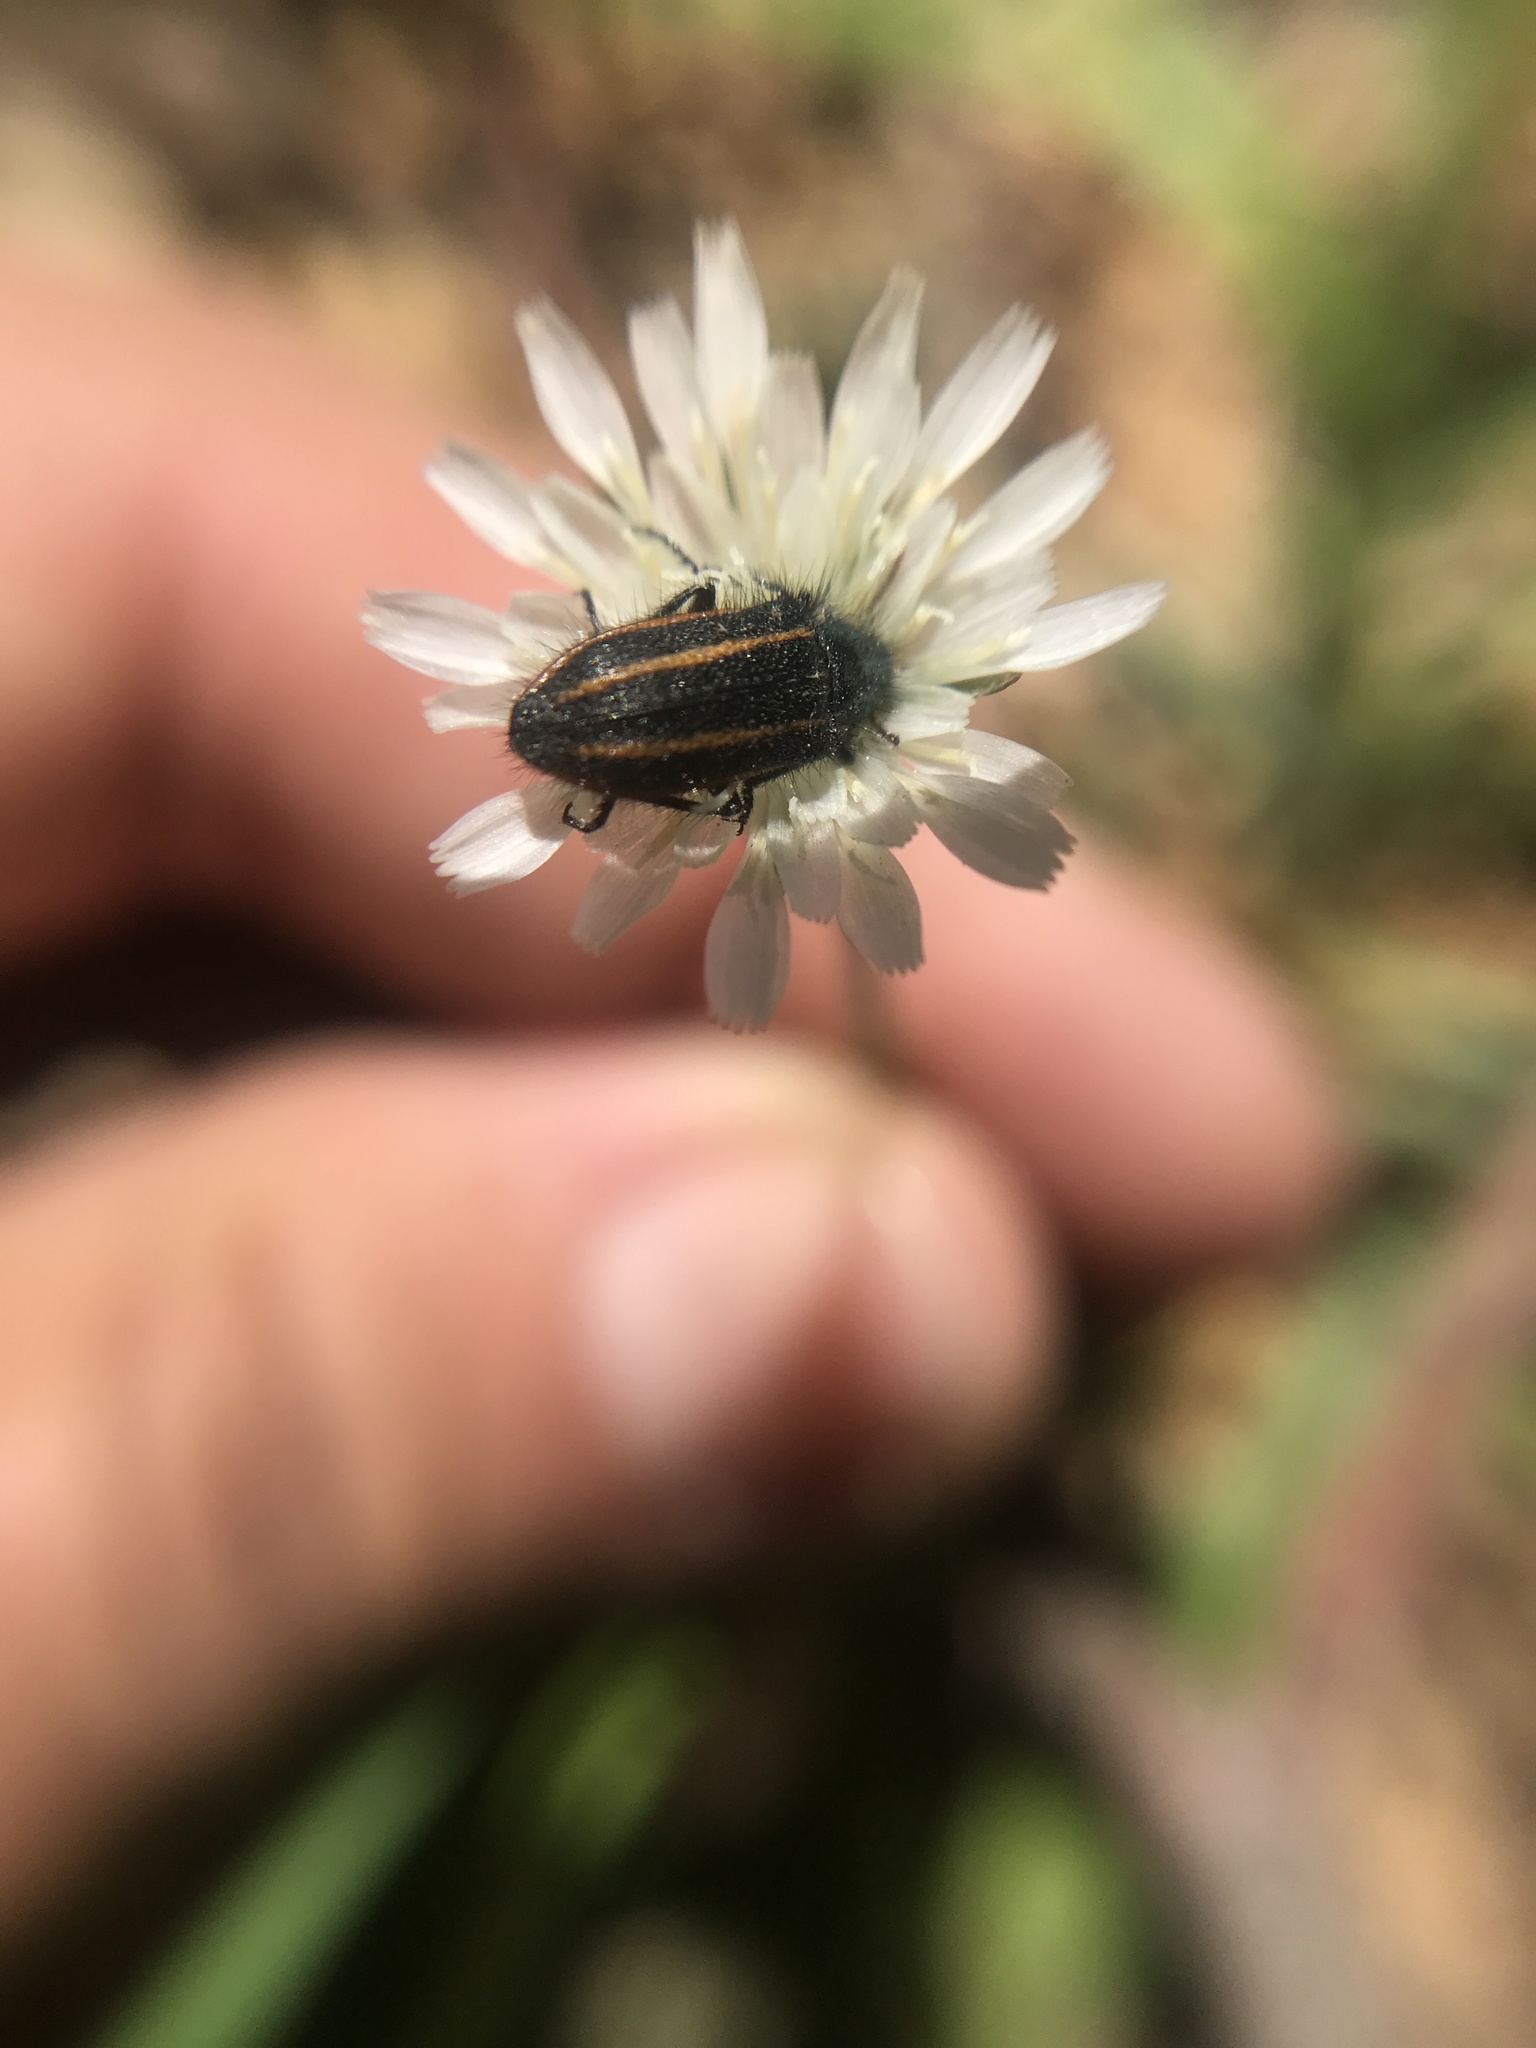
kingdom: Animalia
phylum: Arthropoda
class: Insecta
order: Coleoptera
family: Melyridae
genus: Astylus
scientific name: Astylus
